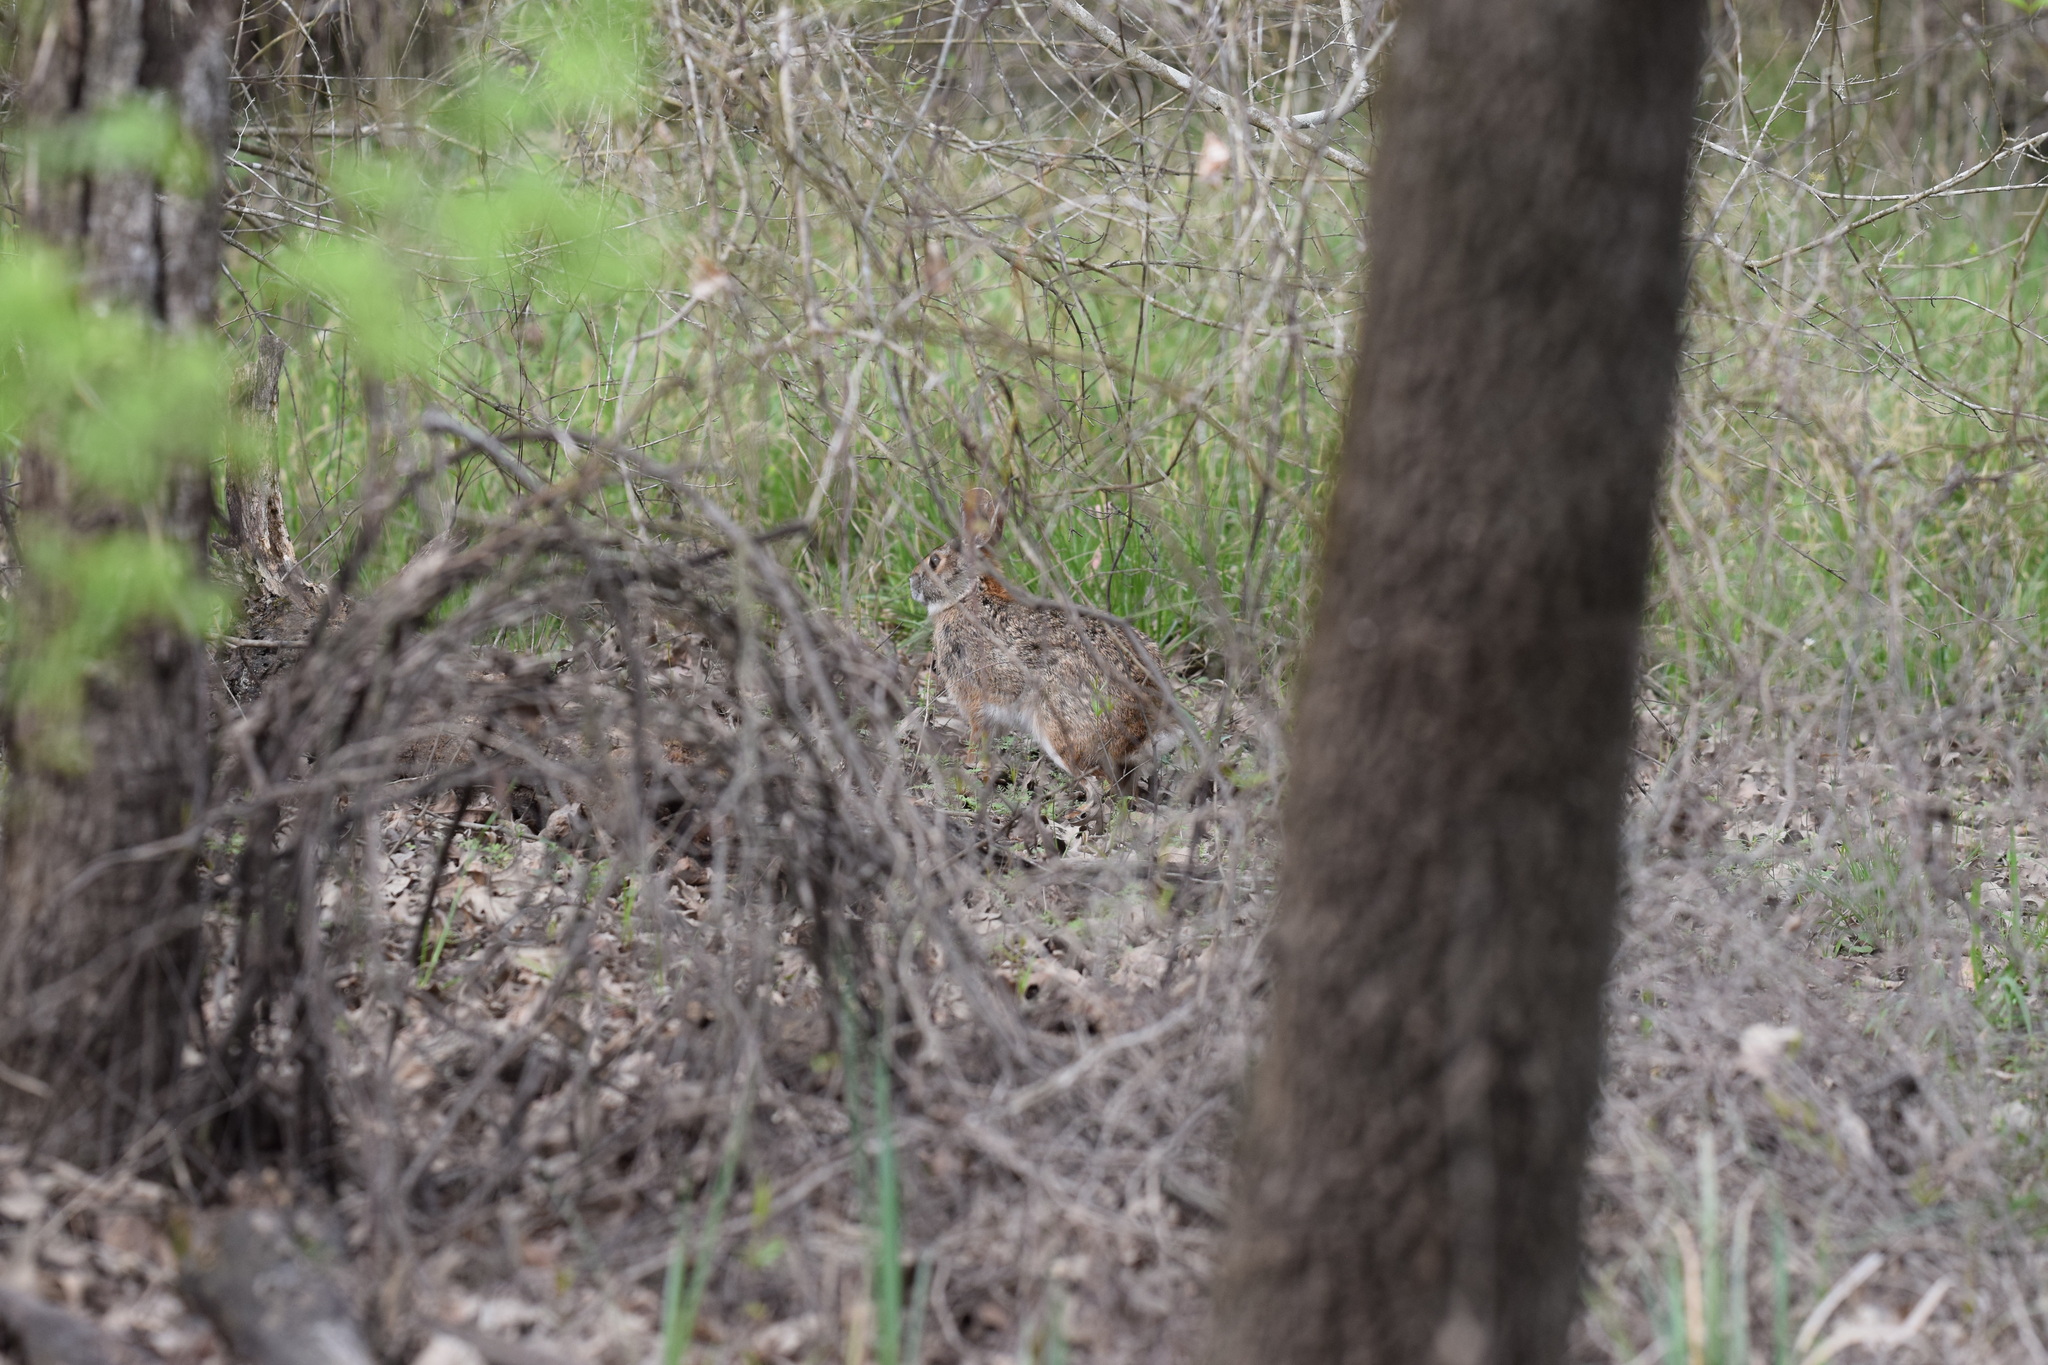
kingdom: Animalia
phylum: Chordata
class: Mammalia
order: Lagomorpha
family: Leporidae
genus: Sylvilagus
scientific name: Sylvilagus aquaticus
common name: Swamp rabbit
